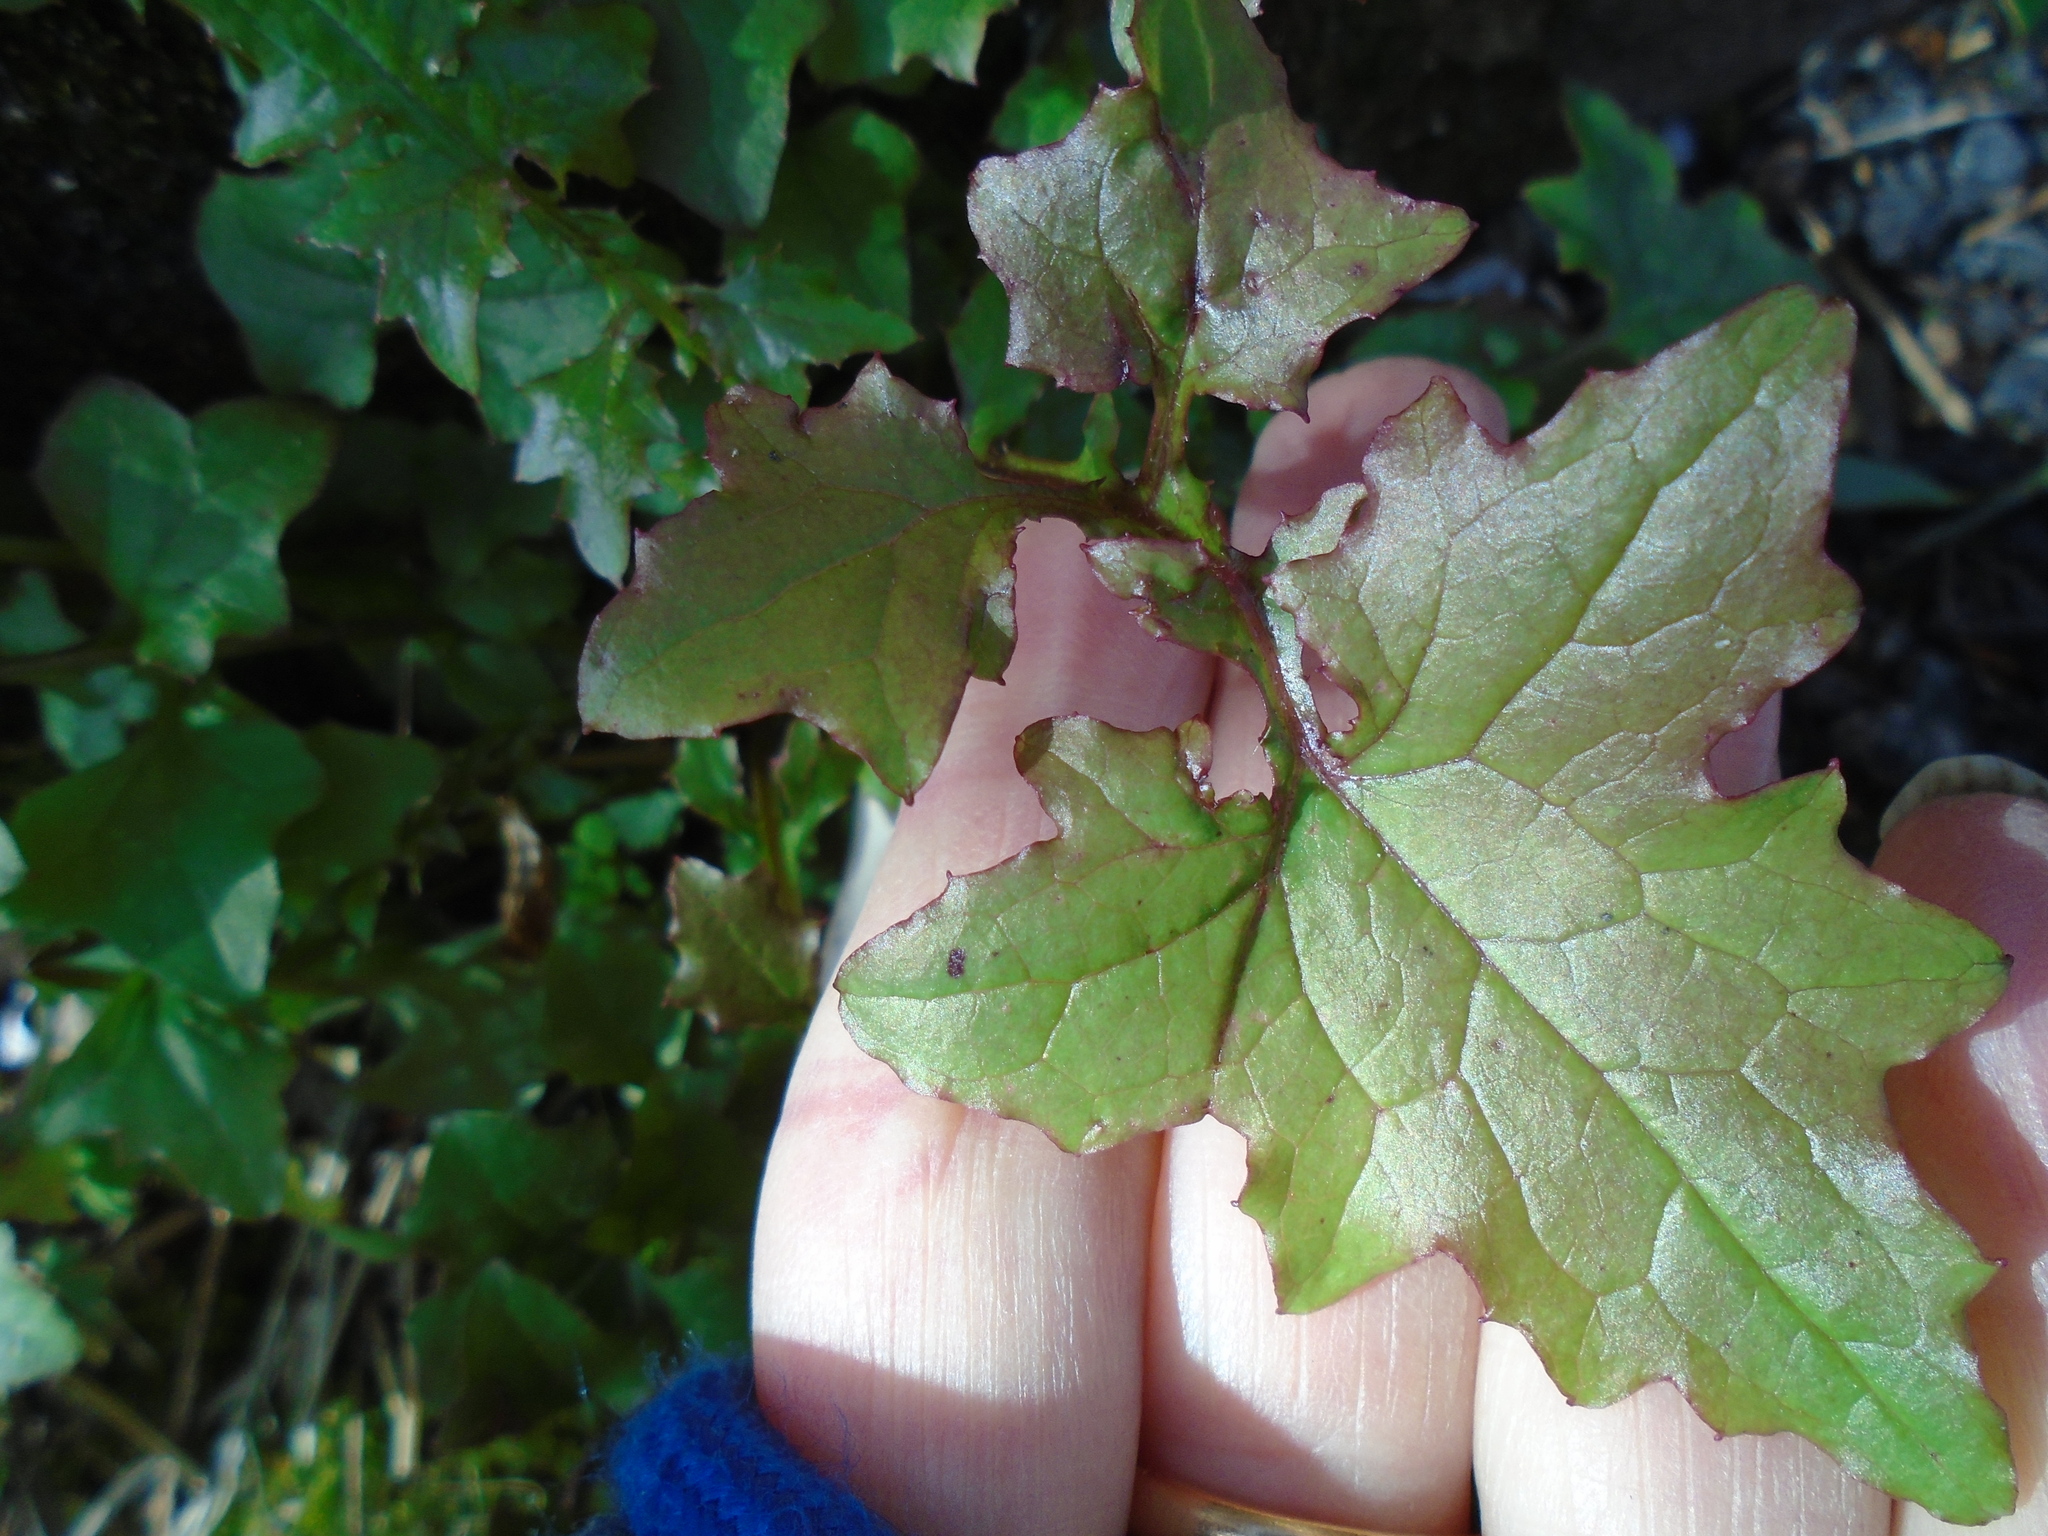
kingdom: Plantae
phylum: Tracheophyta
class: Magnoliopsida
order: Asterales
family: Asteraceae
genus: Mycelis
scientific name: Mycelis muralis
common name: Wall lettuce
